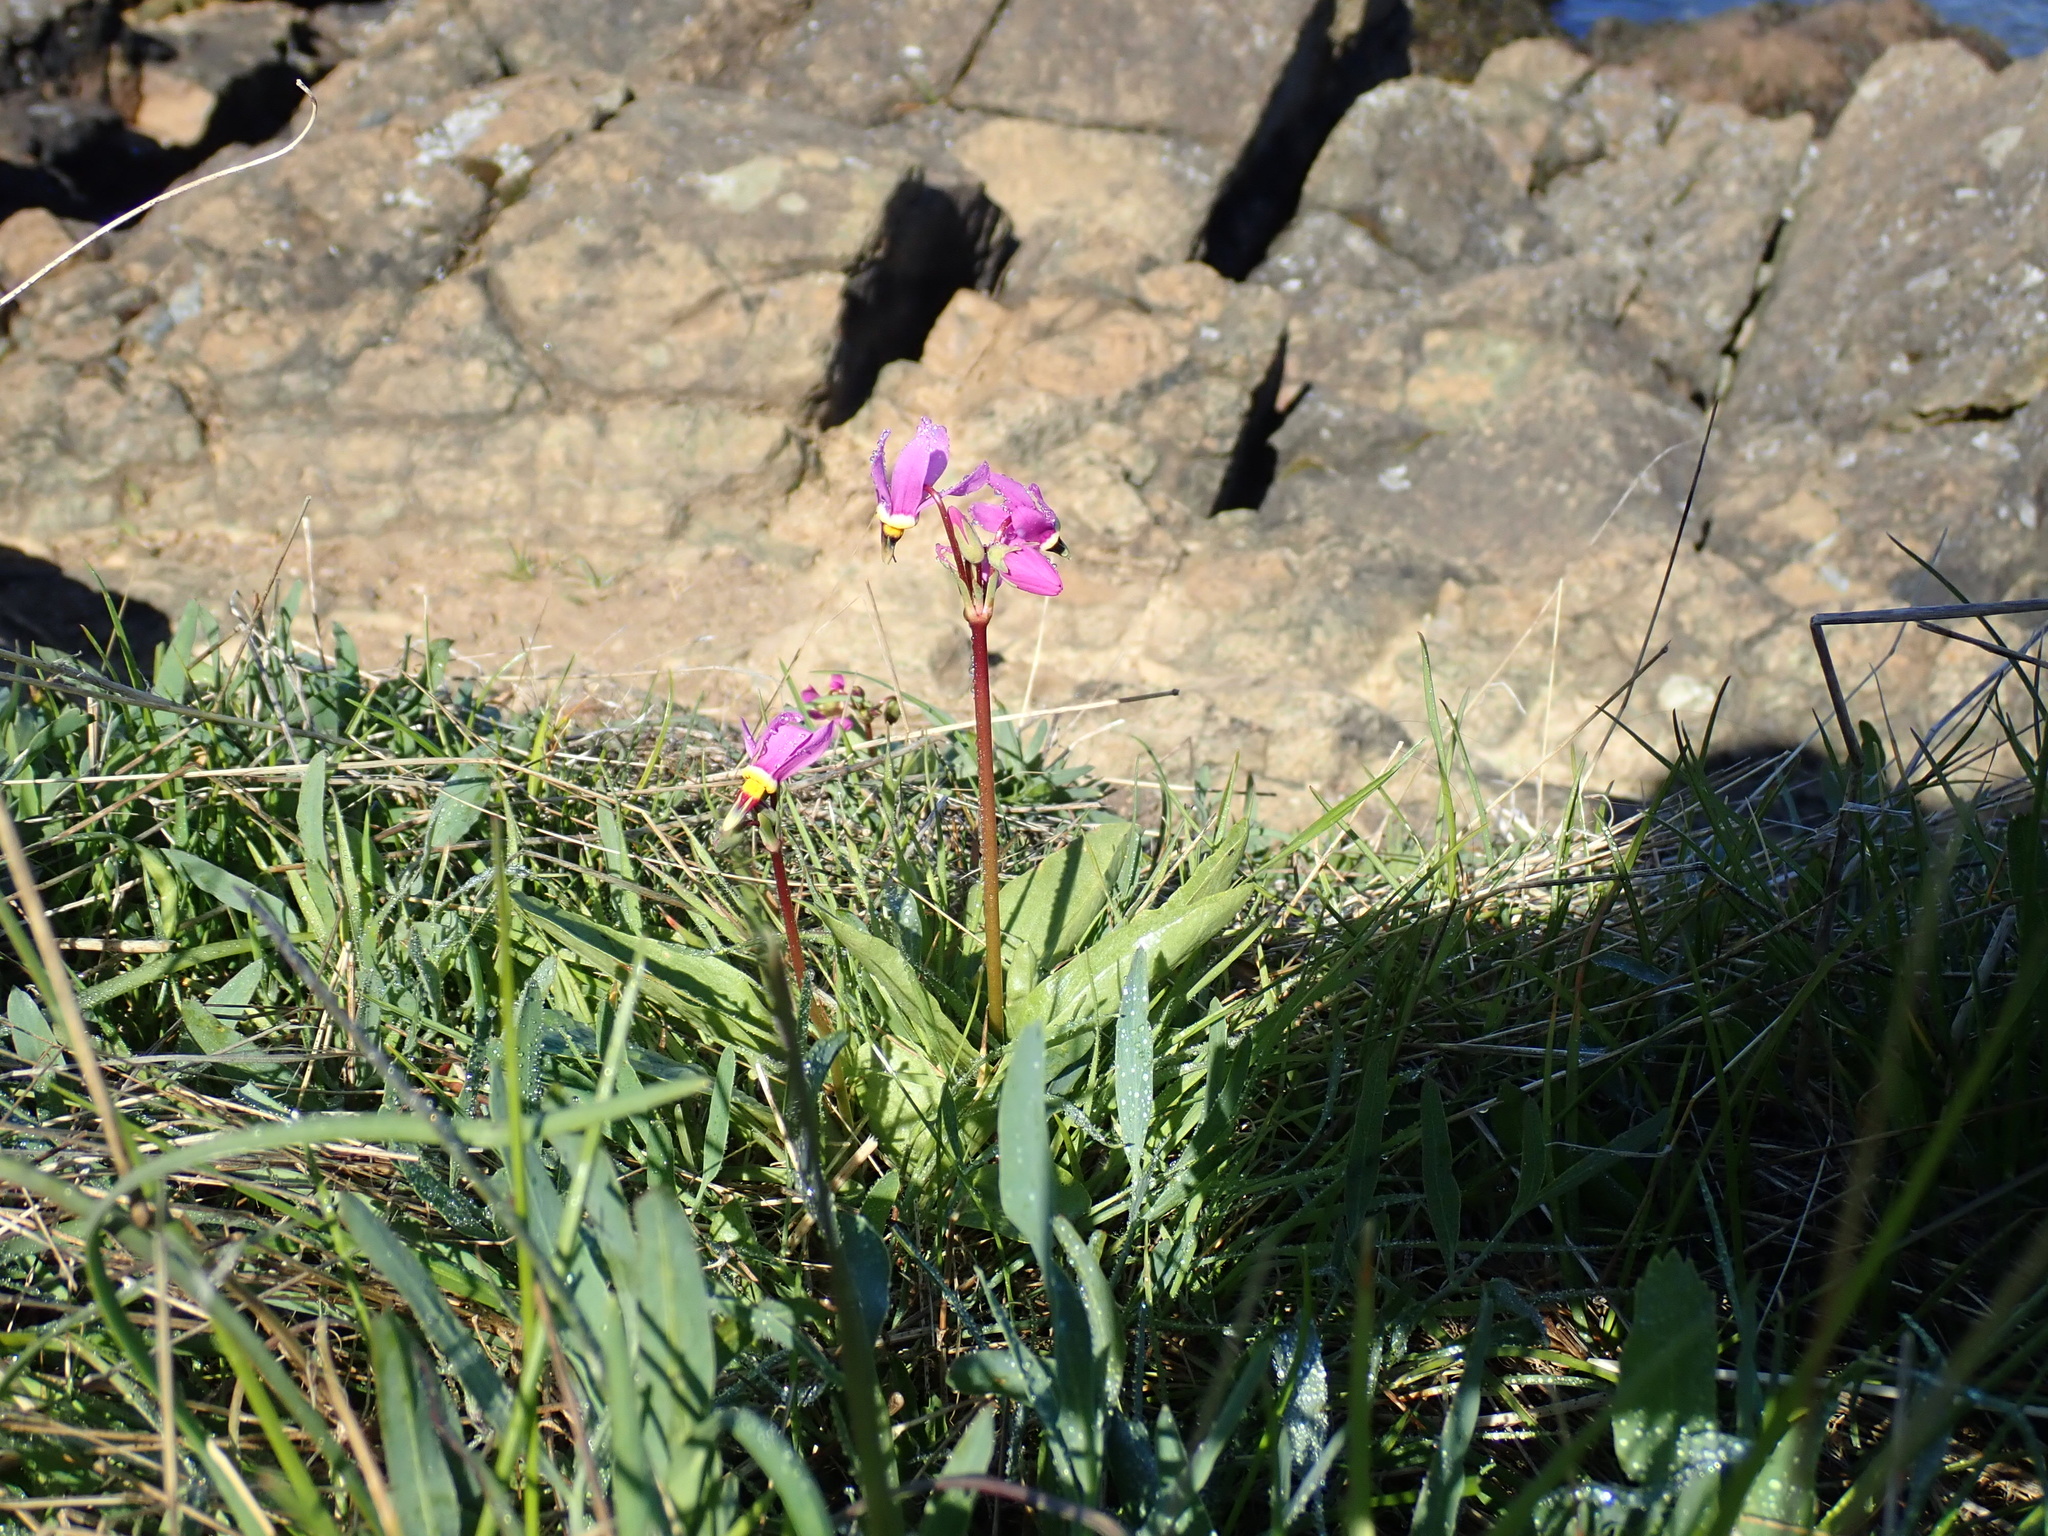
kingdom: Plantae
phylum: Tracheophyta
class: Magnoliopsida
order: Ericales
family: Primulaceae
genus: Dodecatheon
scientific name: Dodecatheon pulchellum
